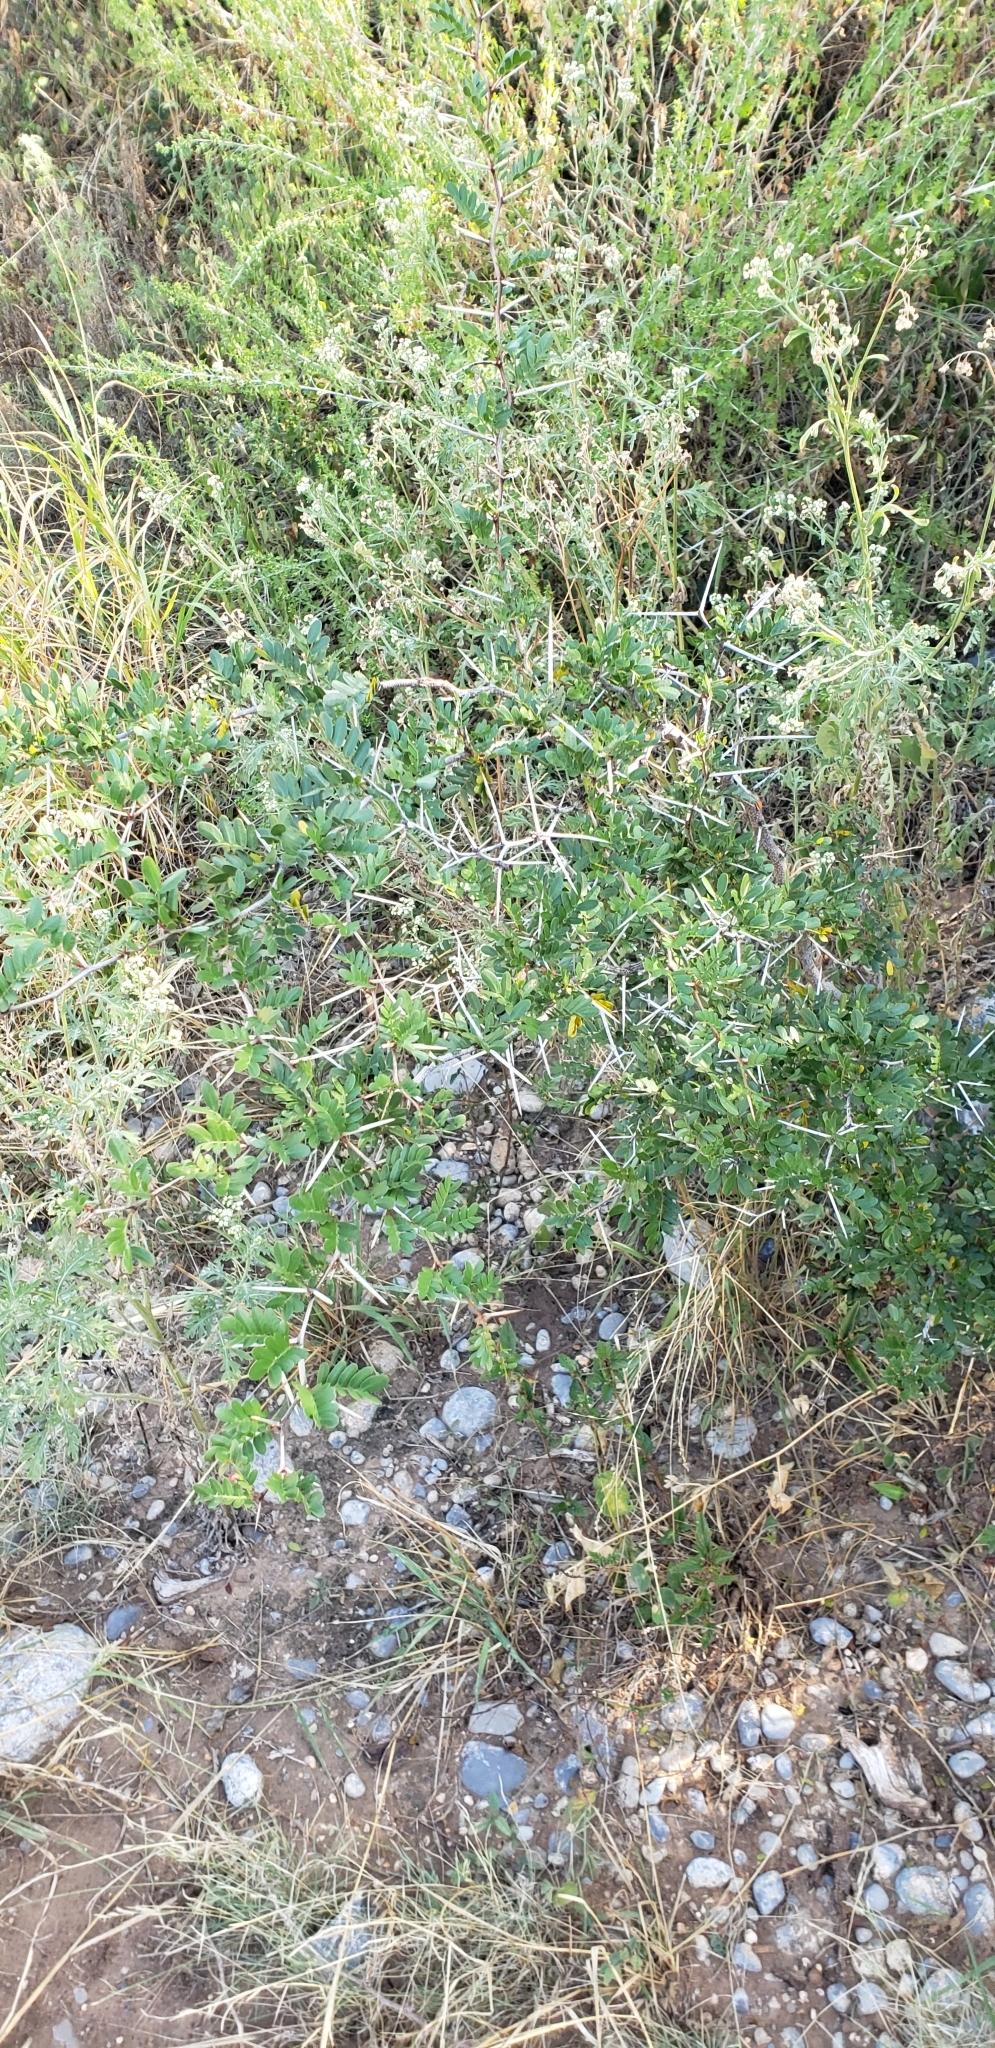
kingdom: Plantae
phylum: Tracheophyta
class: Magnoliopsida
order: Fabales
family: Fabaceae
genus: Vachellia
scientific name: Vachellia rigidula
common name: Blackbrush
